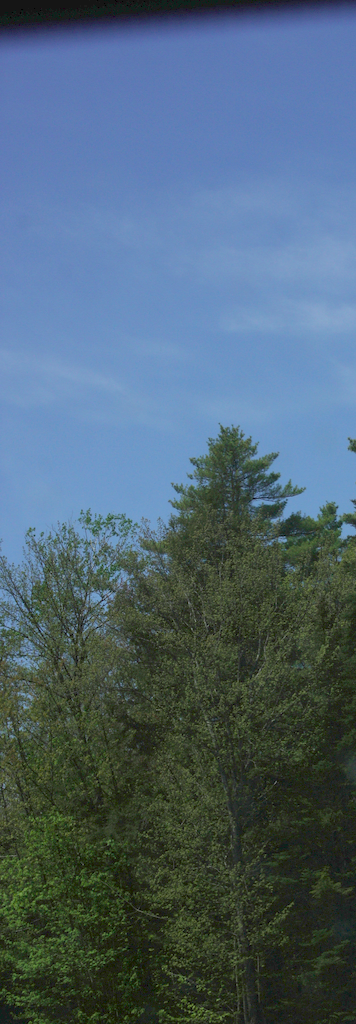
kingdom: Plantae
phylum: Tracheophyta
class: Pinopsida
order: Pinales
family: Pinaceae
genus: Pinus
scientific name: Pinus strobus
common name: Weymouth pine
